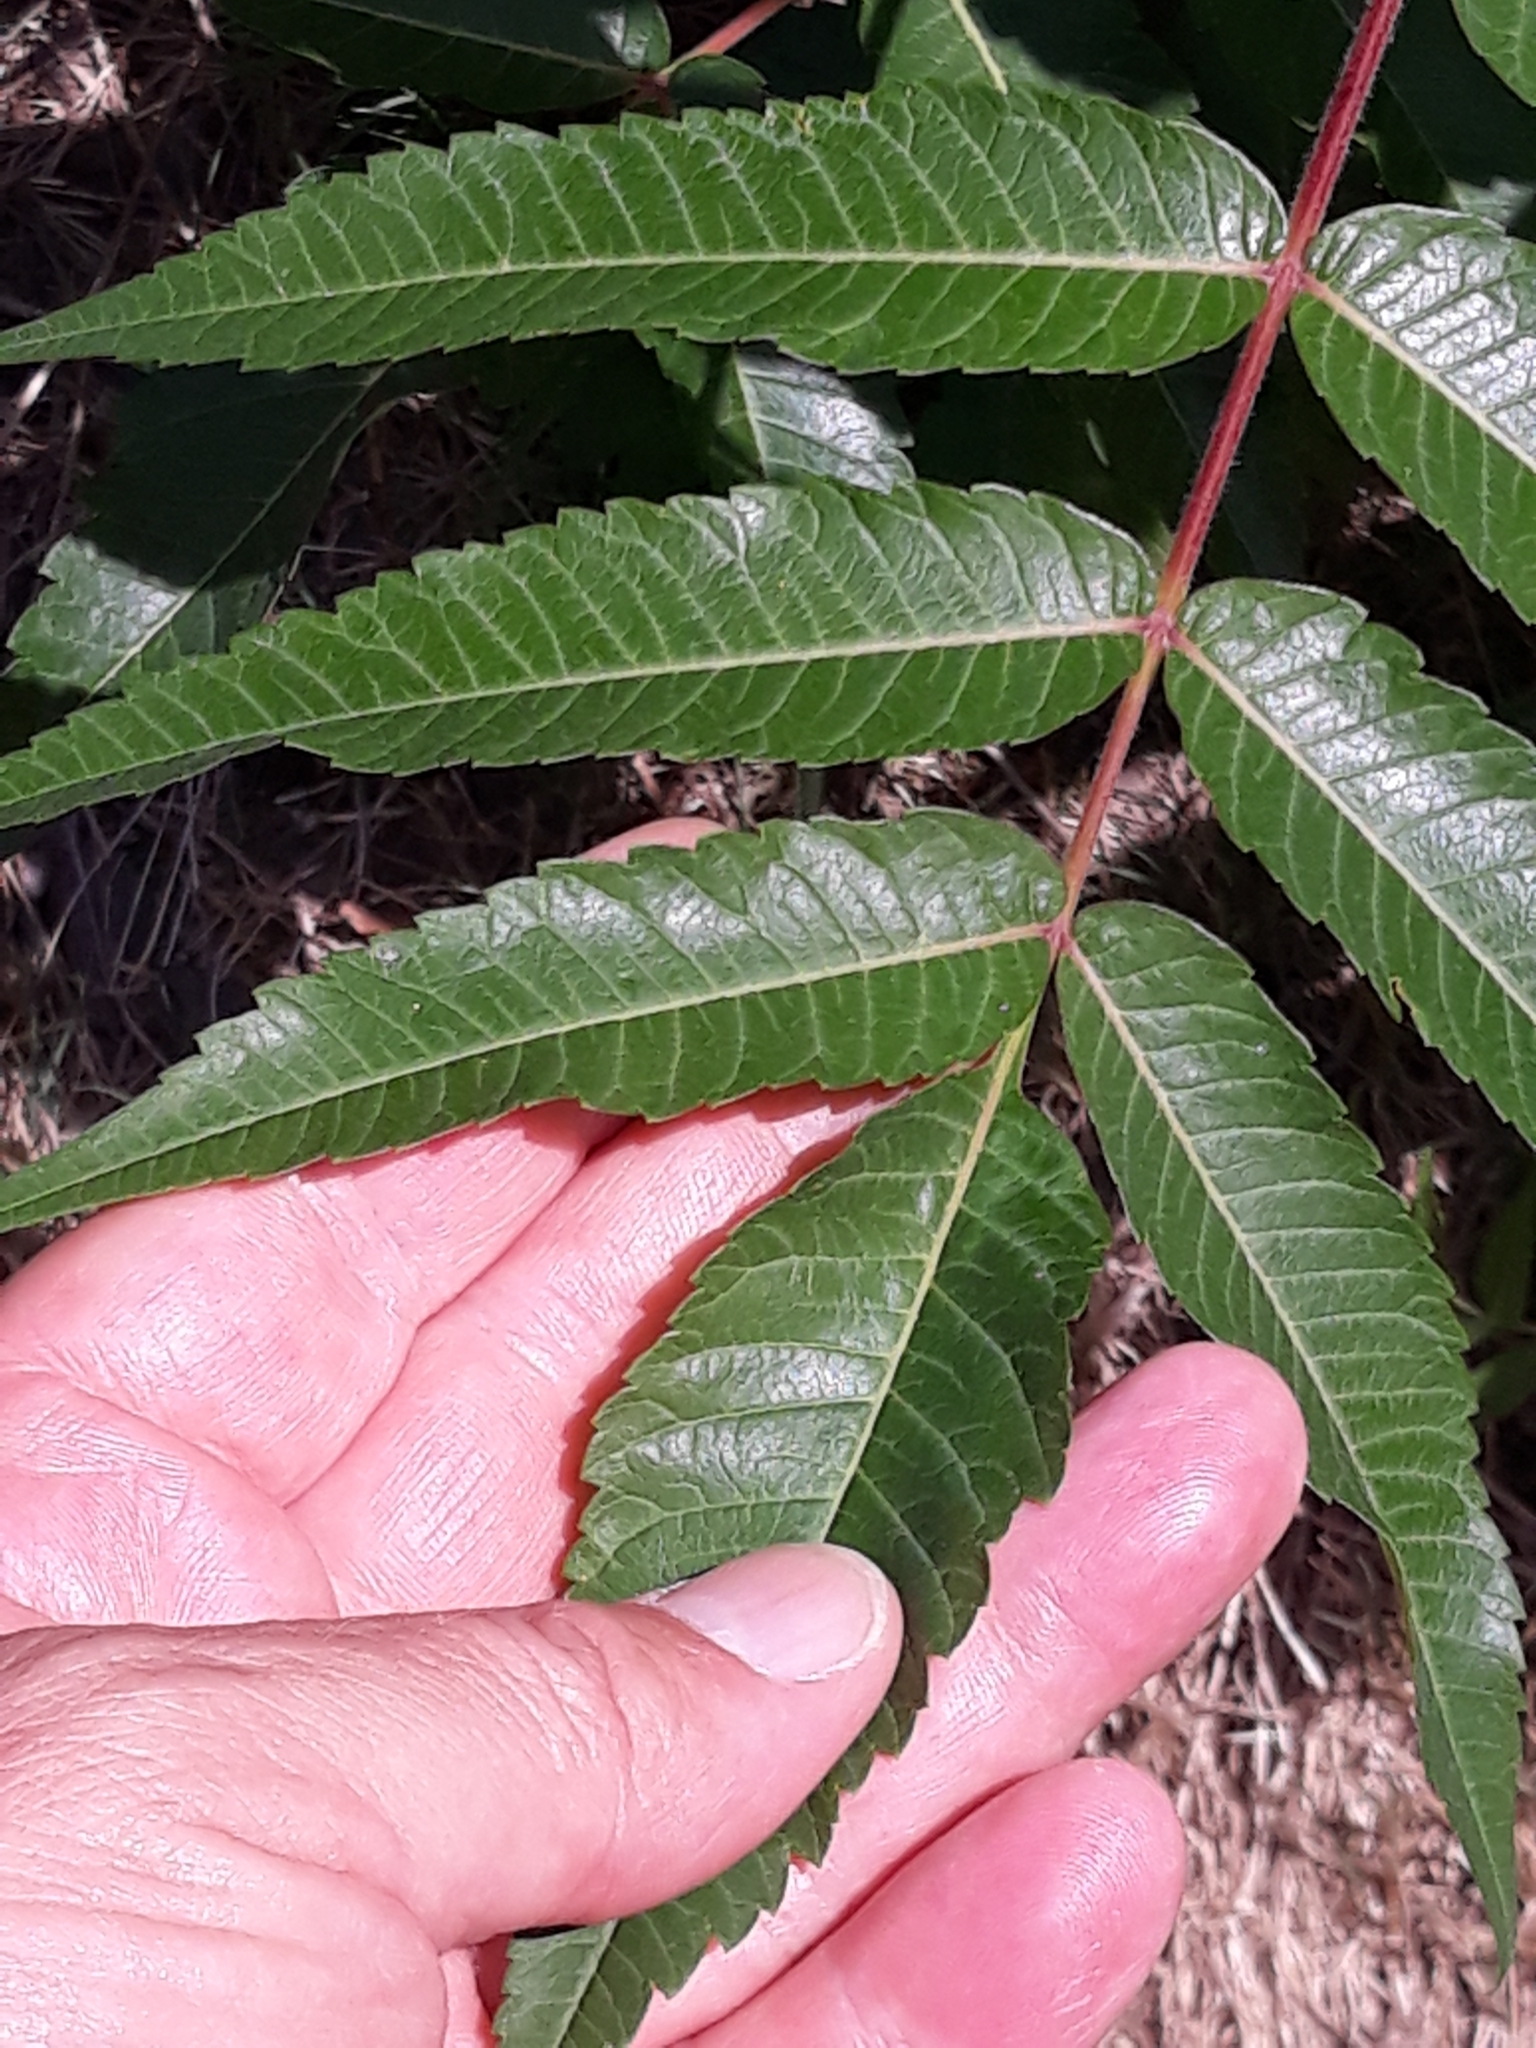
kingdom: Plantae
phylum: Tracheophyta
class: Magnoliopsida
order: Sapindales
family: Anacardiaceae
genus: Rhus
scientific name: Rhus typhina
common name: Staghorn sumac
